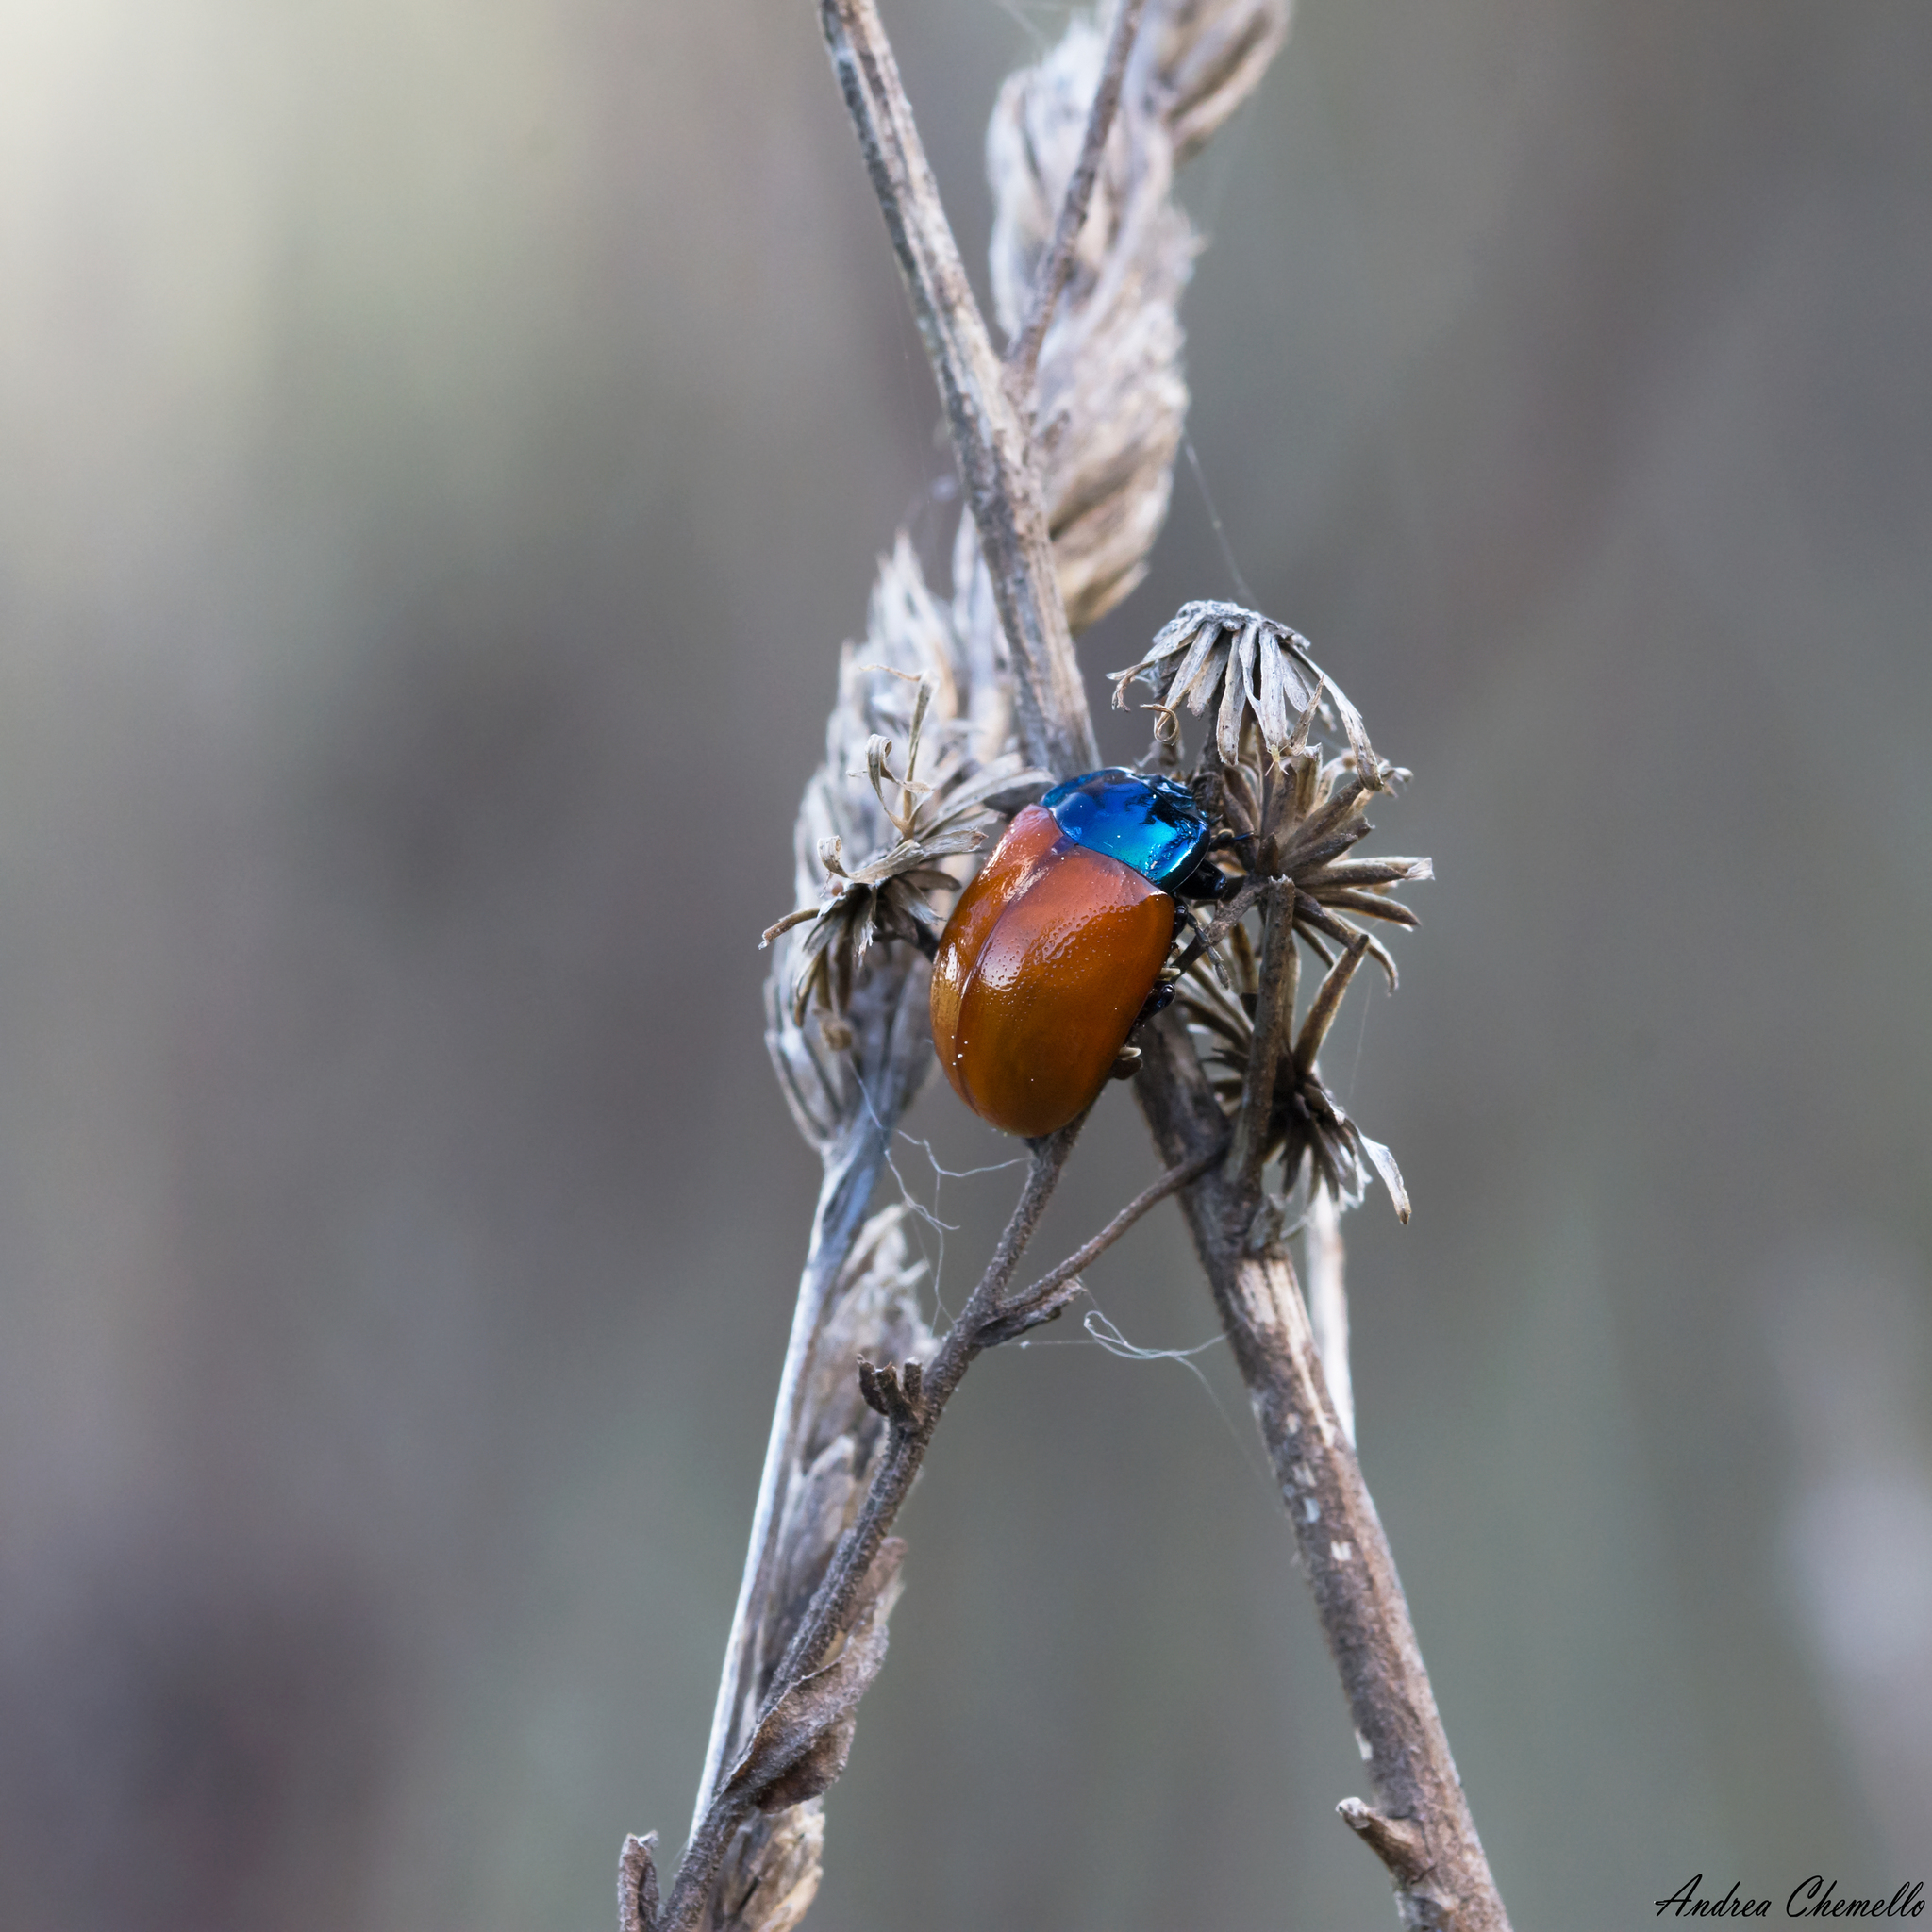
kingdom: Animalia
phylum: Arthropoda
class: Insecta
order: Coleoptera
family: Chrysomelidae
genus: Chrysolina
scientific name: Chrysolina grossa
